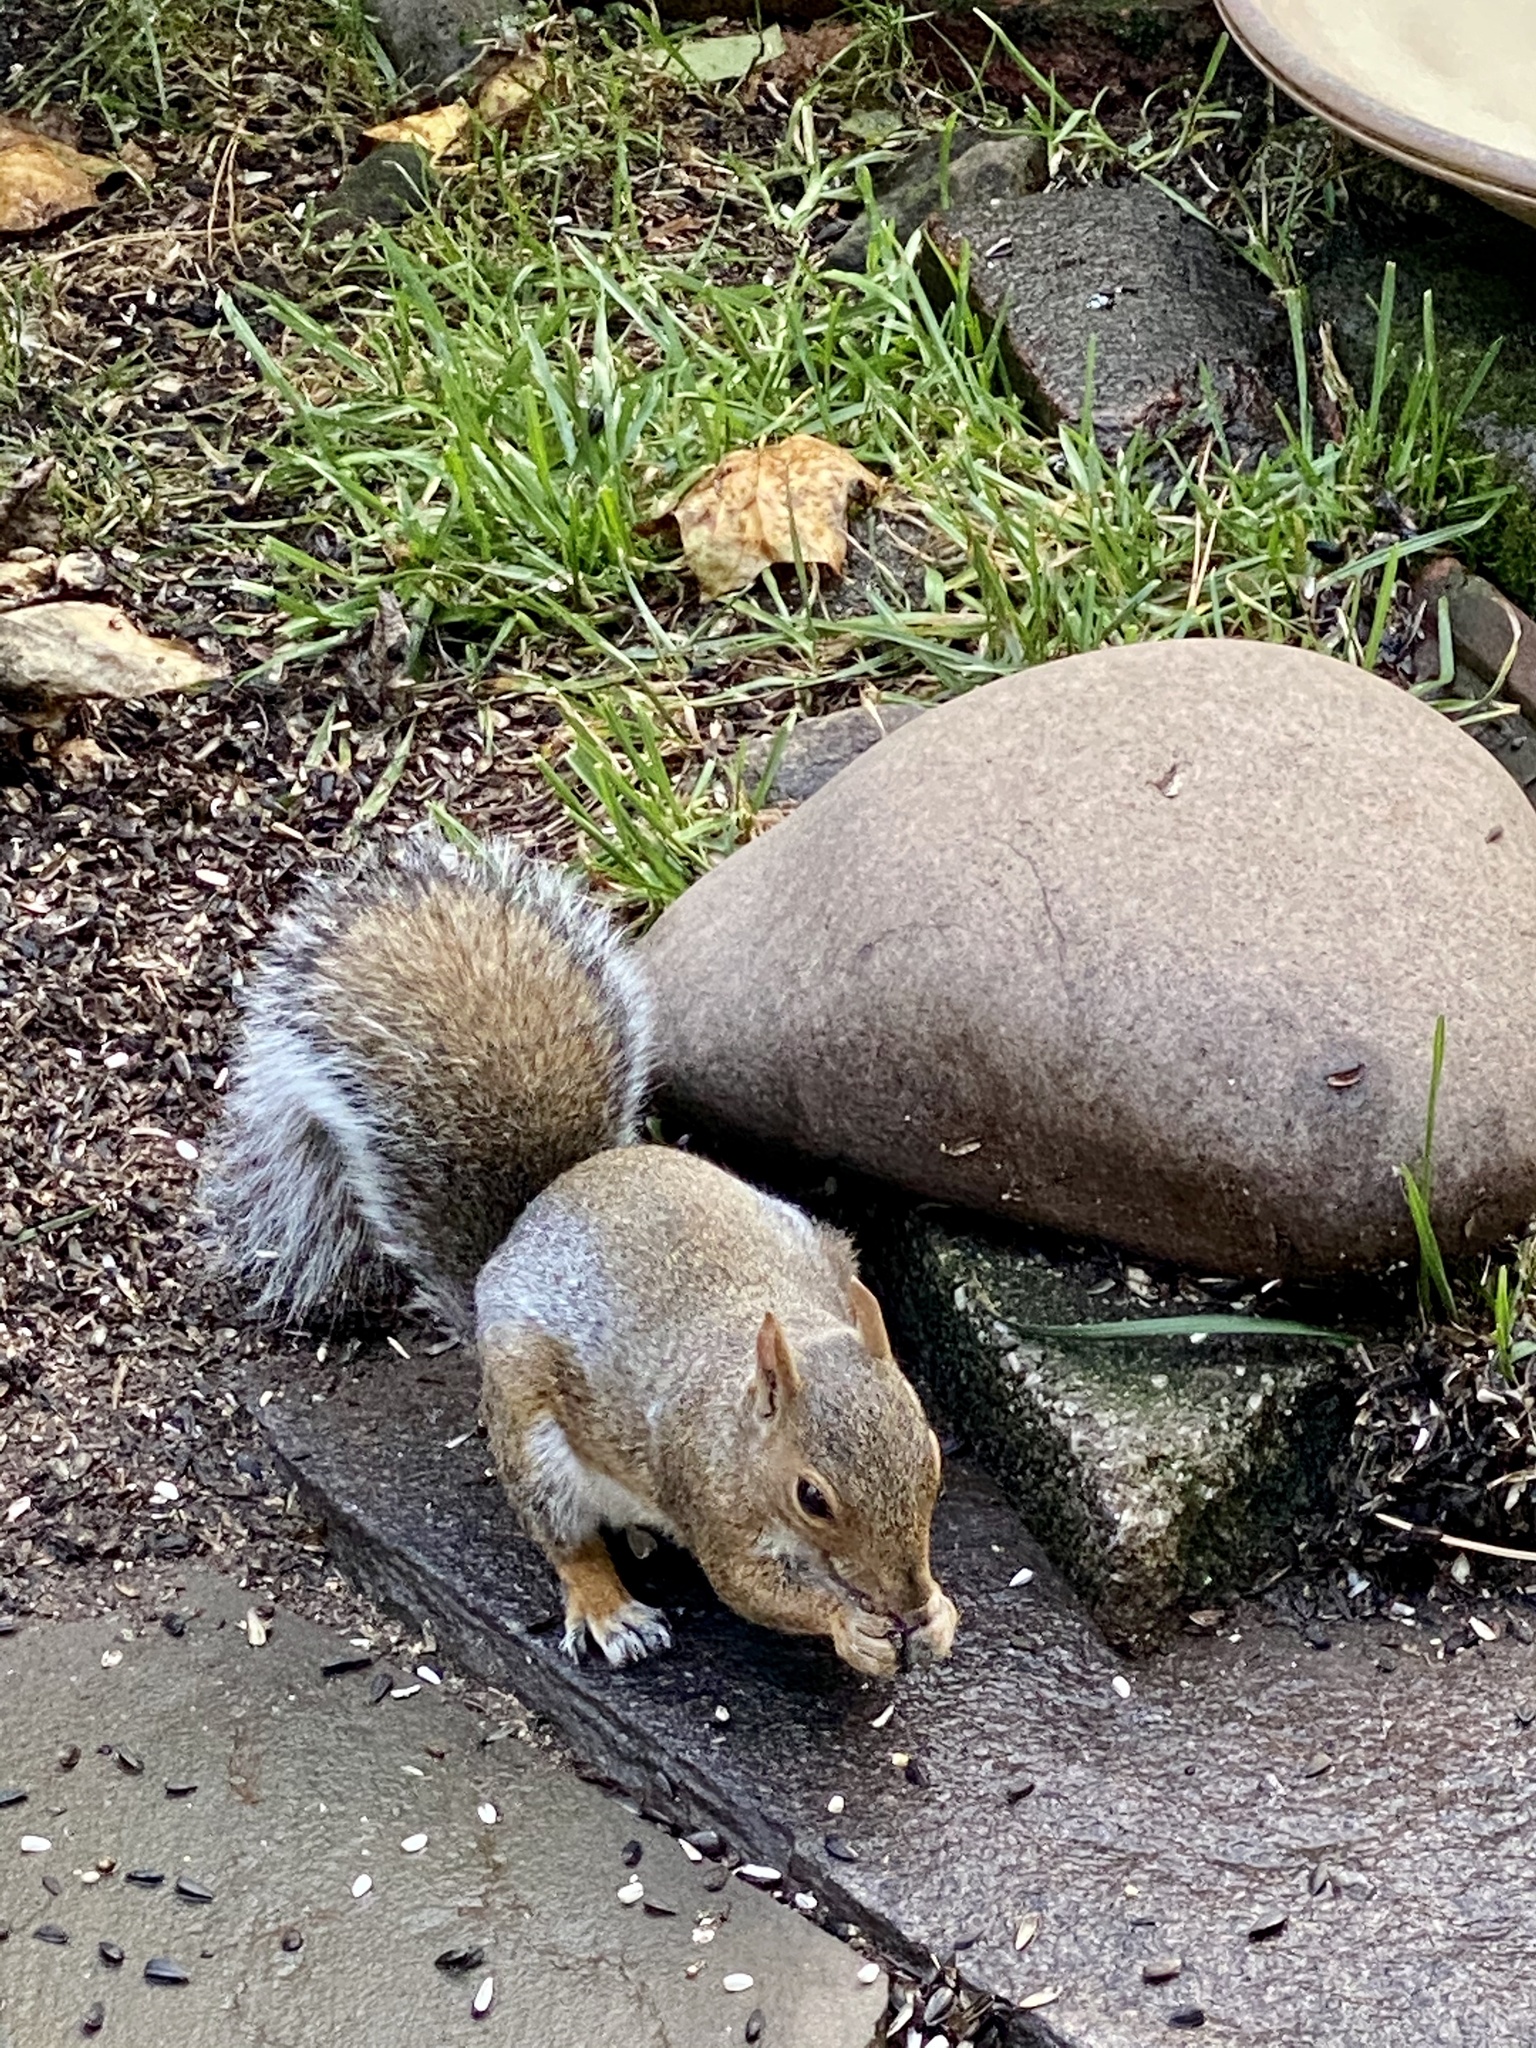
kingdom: Animalia
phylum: Chordata
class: Mammalia
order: Rodentia
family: Sciuridae
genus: Sciurus
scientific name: Sciurus carolinensis
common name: Eastern gray squirrel
